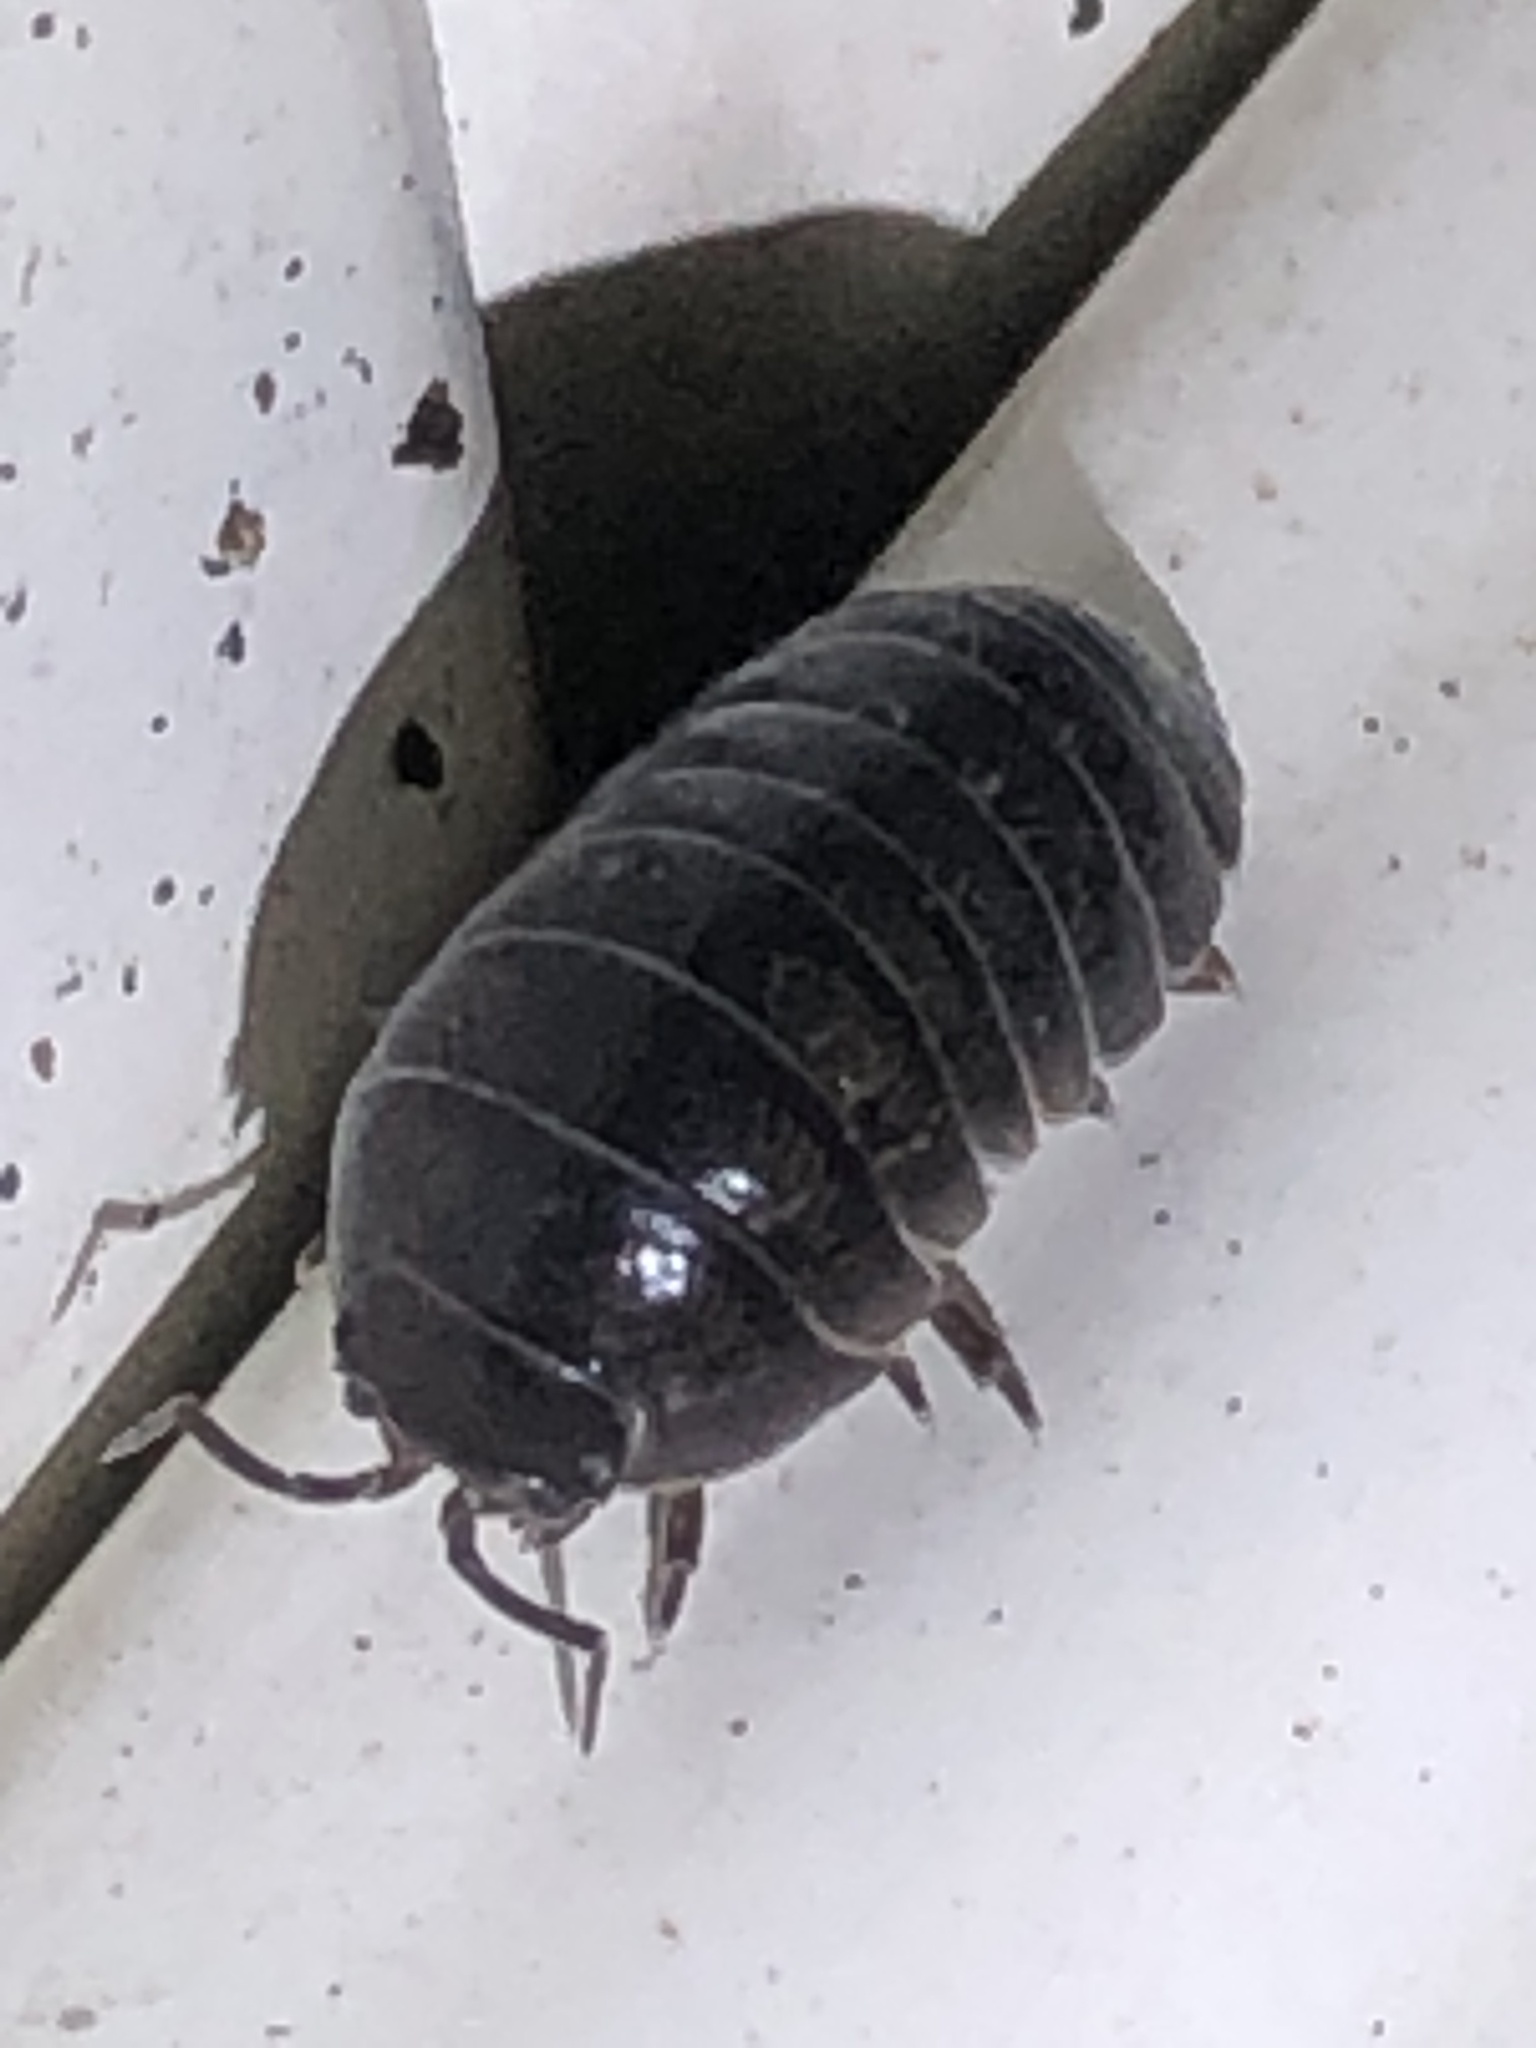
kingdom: Animalia
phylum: Arthropoda
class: Malacostraca
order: Isopoda
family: Armadillidiidae
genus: Armadillidium
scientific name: Armadillidium vulgare
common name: Common pill woodlouse
